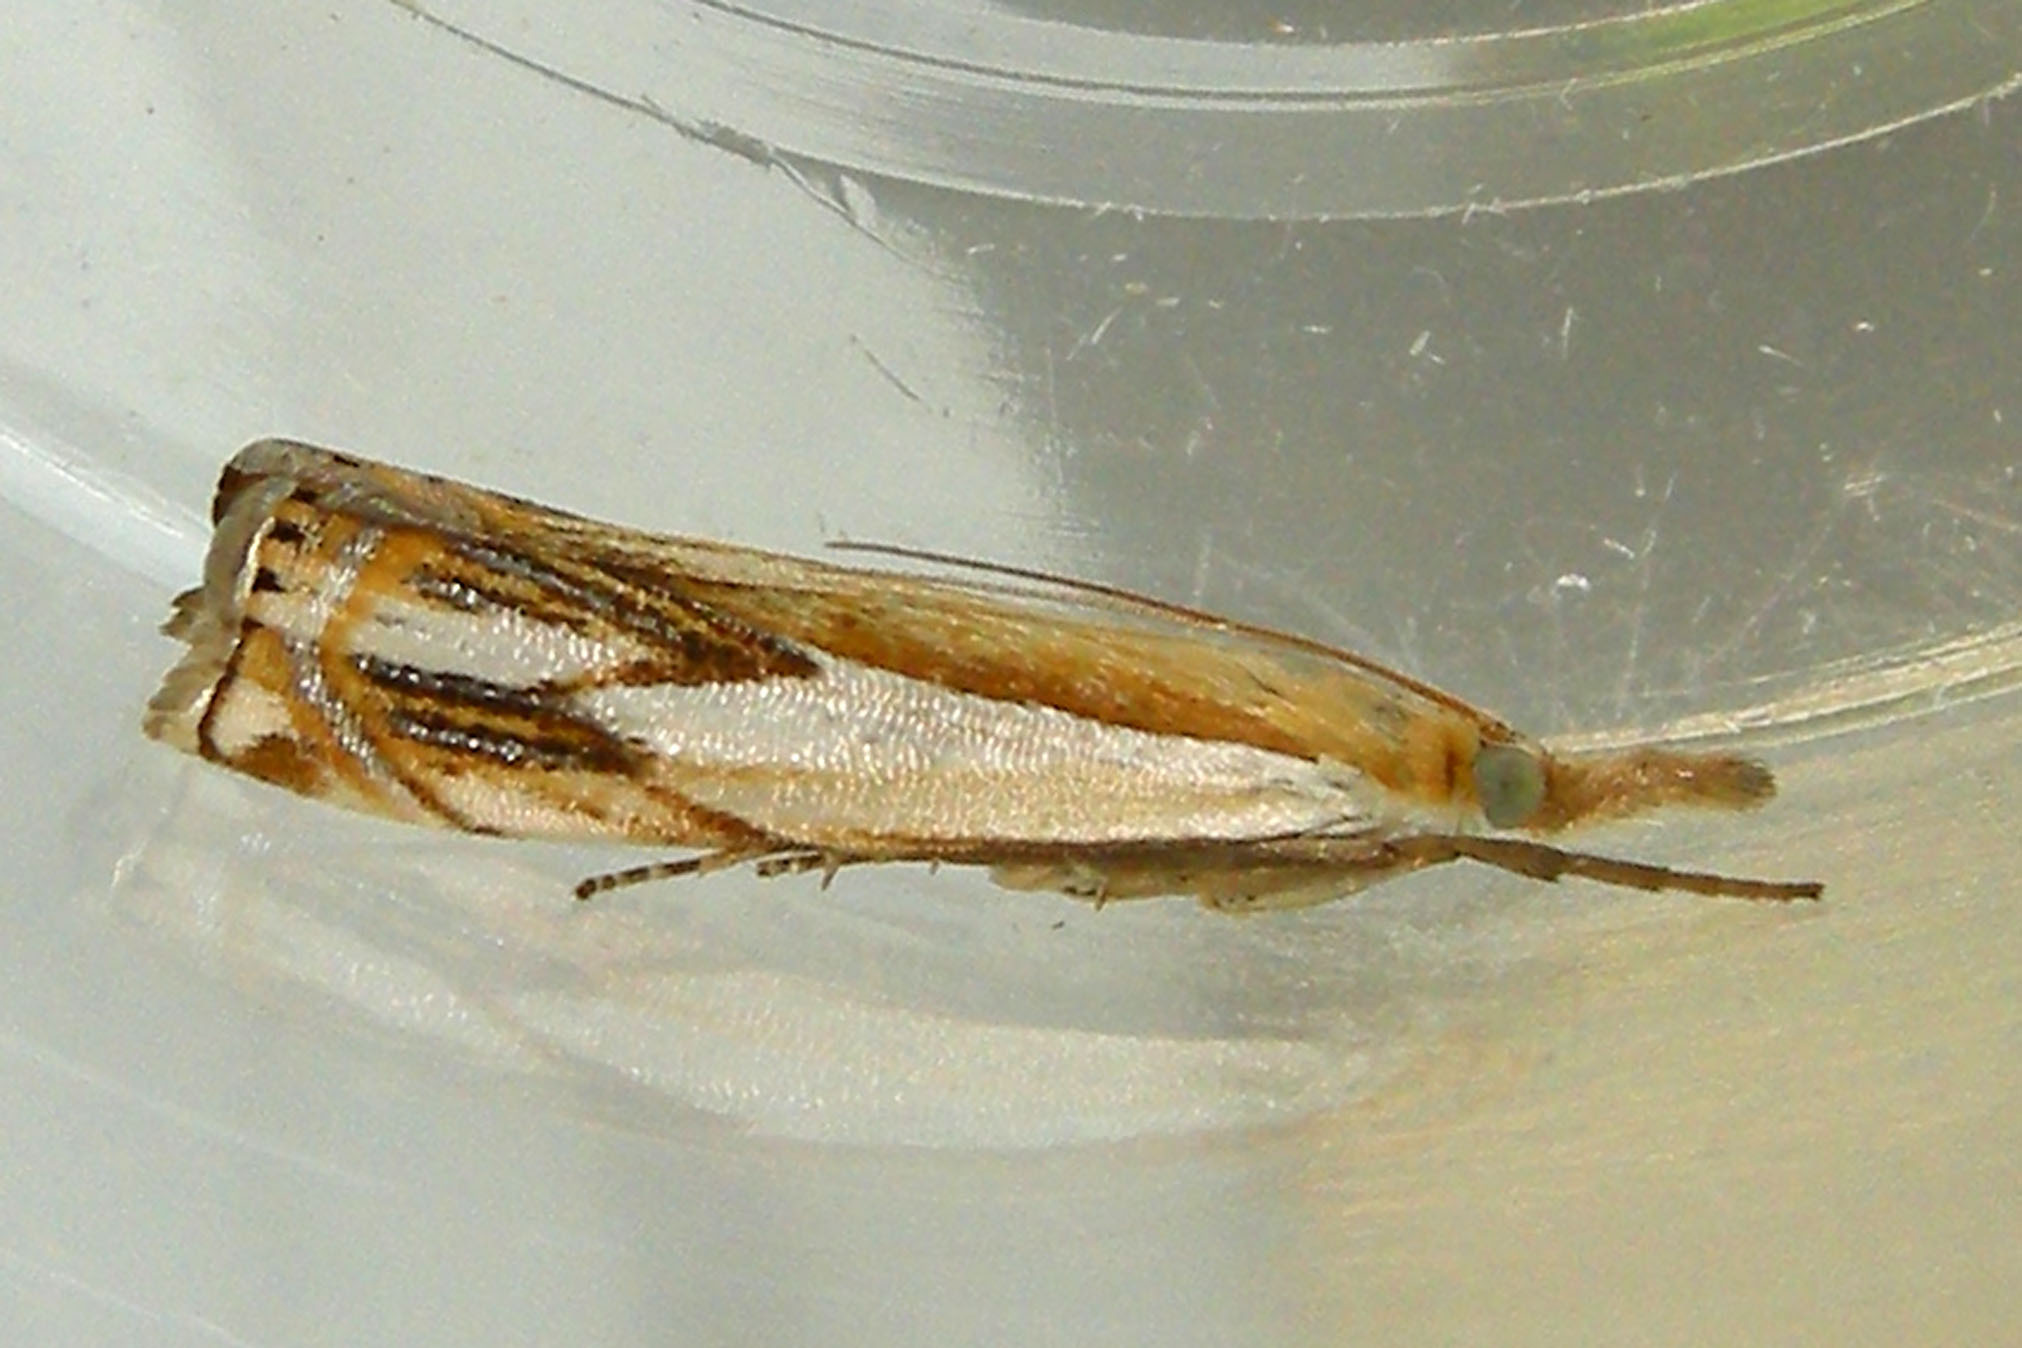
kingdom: Animalia
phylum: Arthropoda
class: Insecta
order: Lepidoptera
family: Crambidae
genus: Crambus
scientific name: Crambus agitatellus
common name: Double-banded grass-veneer
